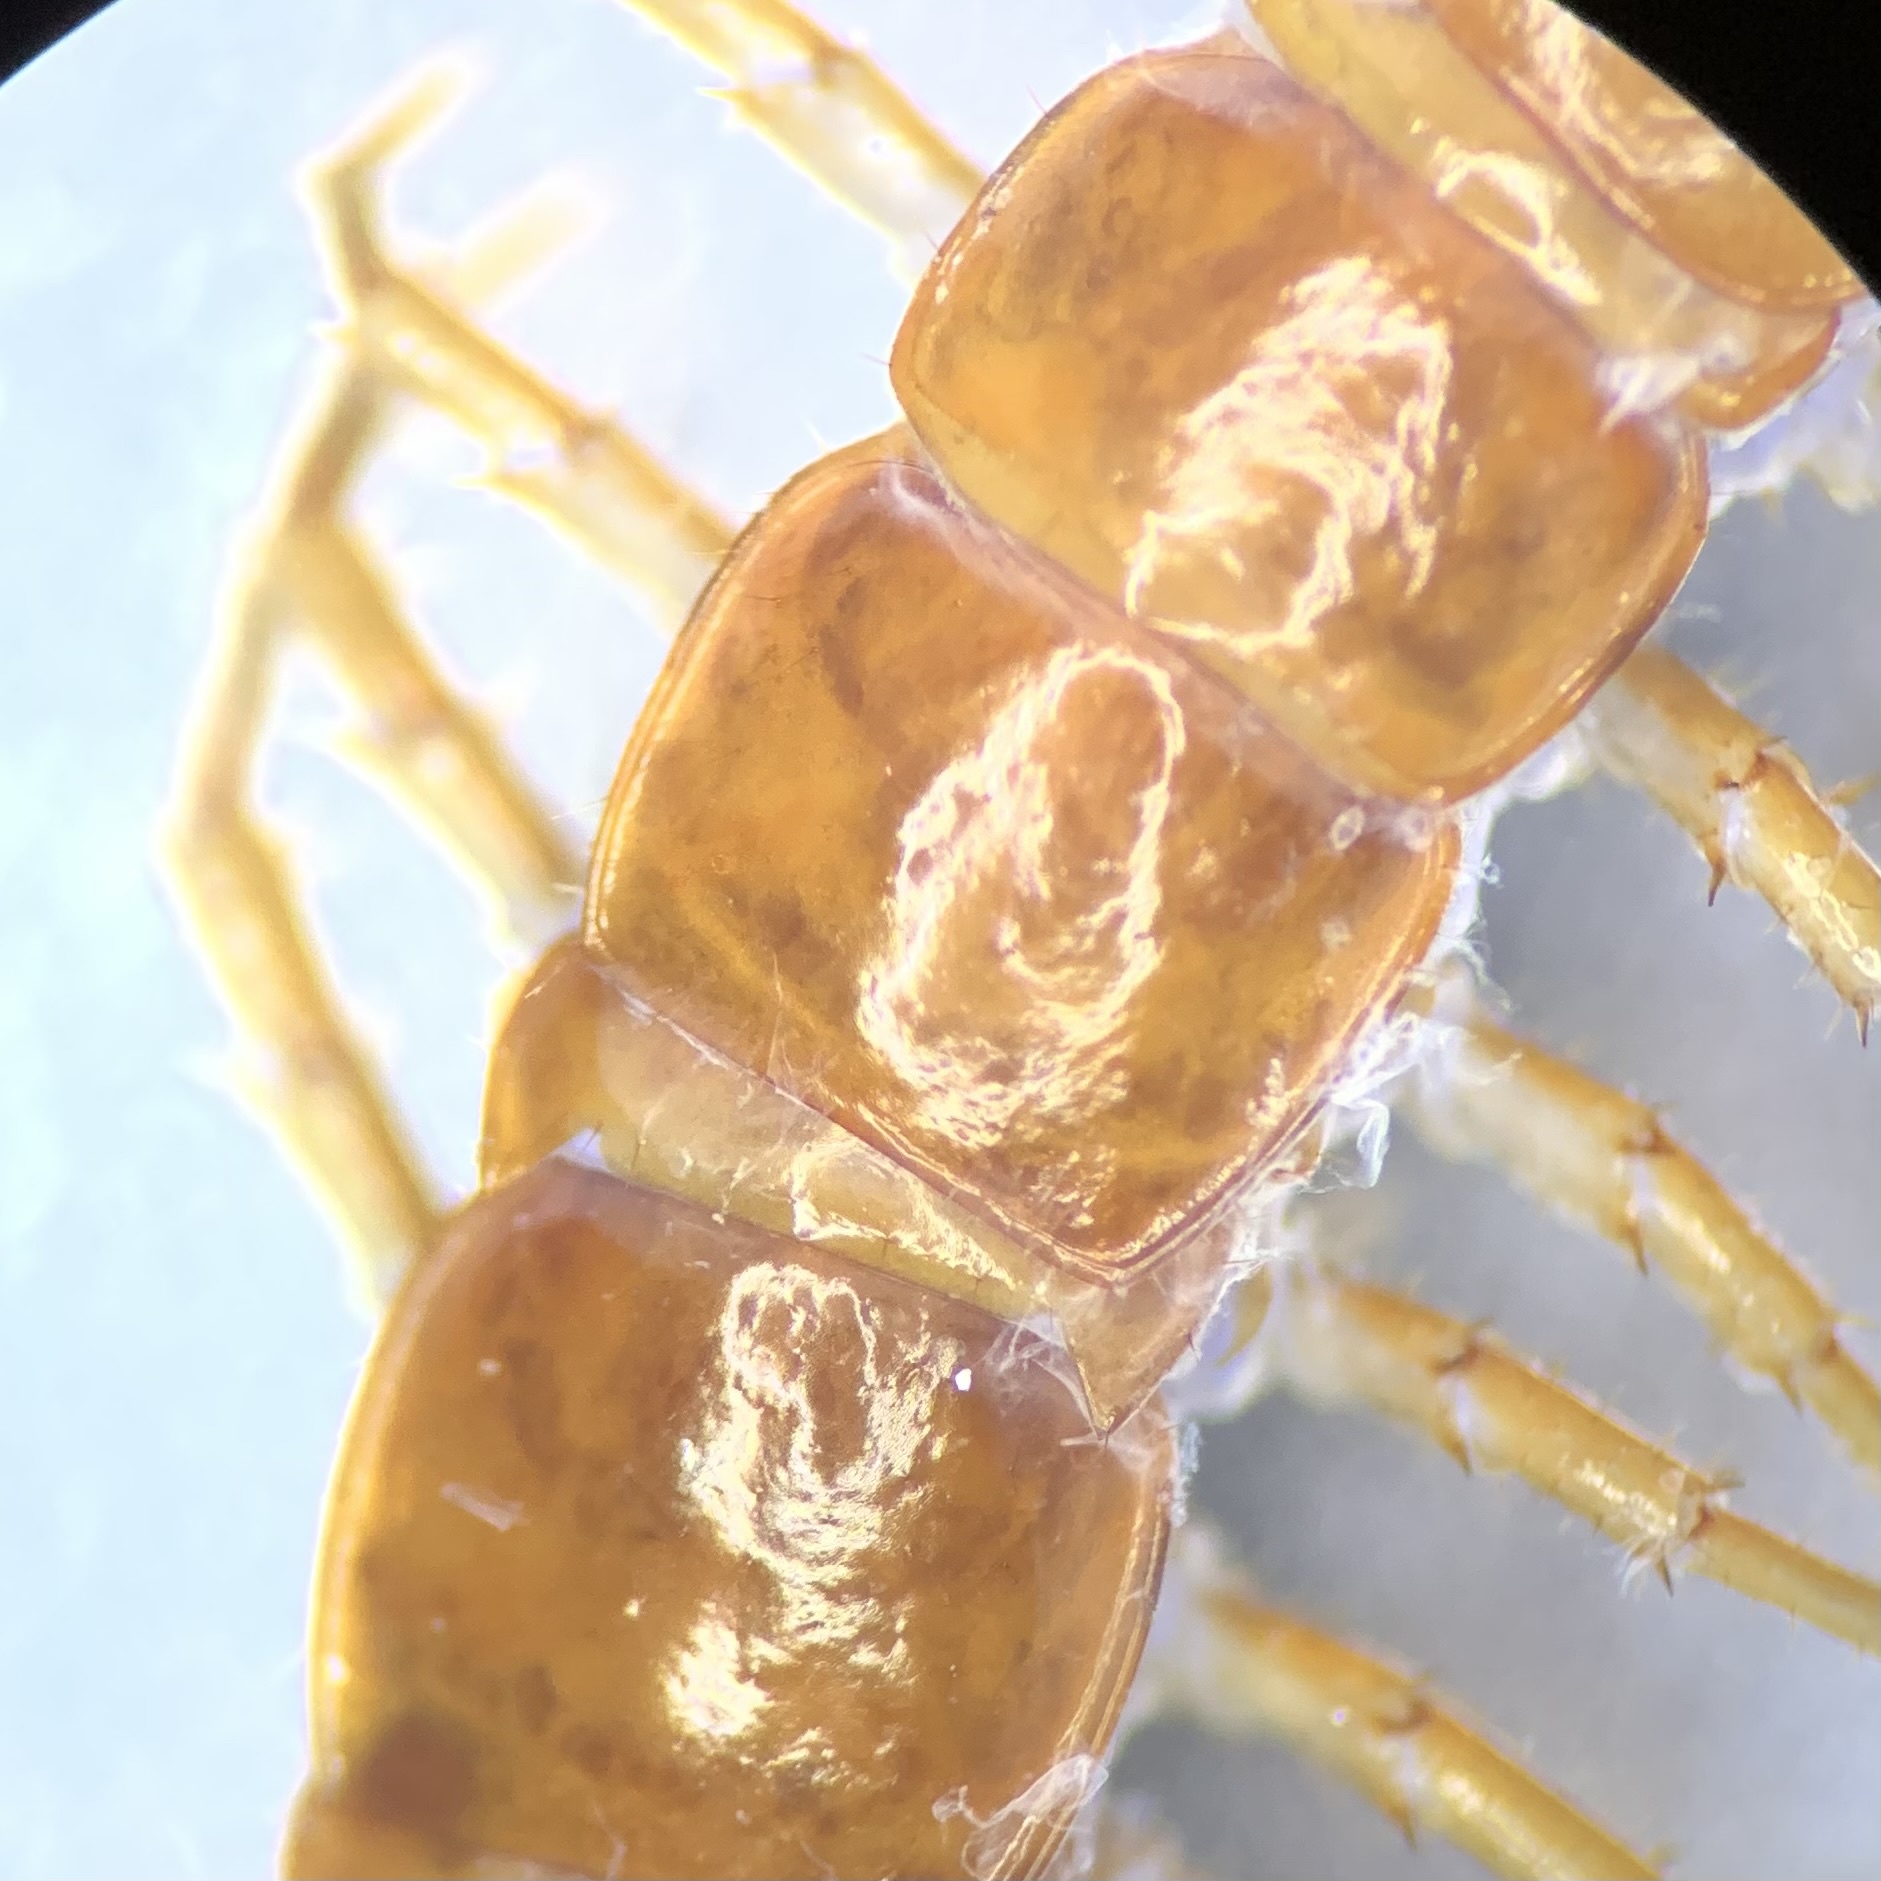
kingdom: Animalia
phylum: Arthropoda
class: Chilopoda
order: Lithobiomorpha
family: Lithobiidae
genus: Lithobius
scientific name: Lithobius piceus
